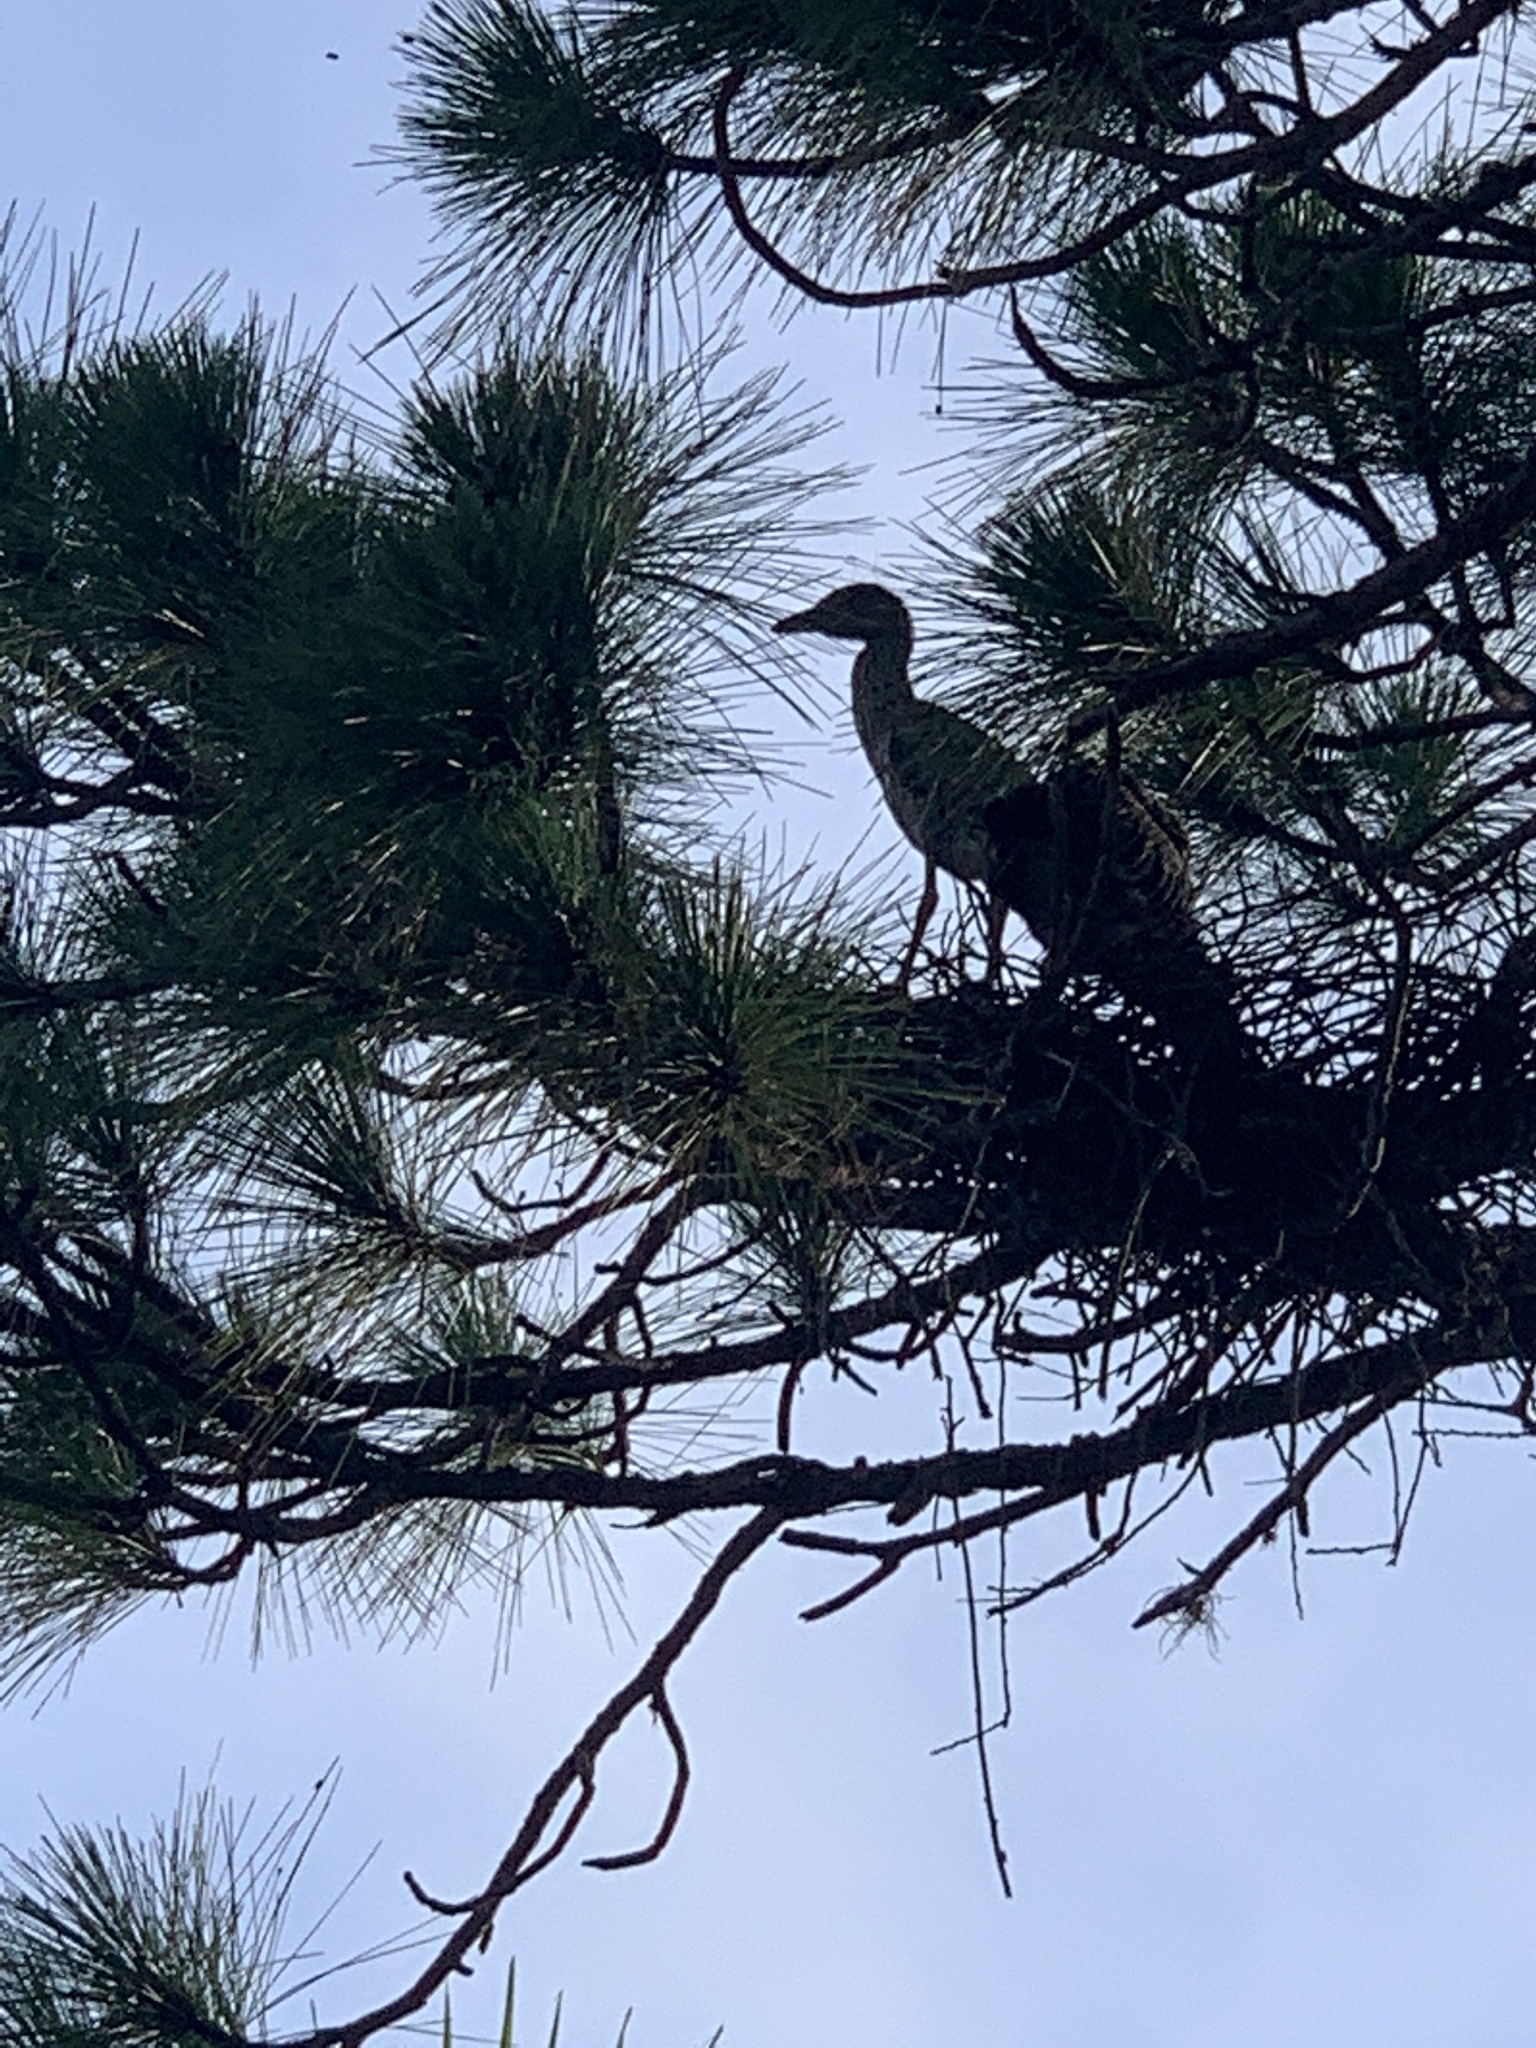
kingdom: Animalia
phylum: Chordata
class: Aves
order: Pelecaniformes
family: Ardeidae
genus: Nyctanassa
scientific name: Nyctanassa violacea
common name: Yellow-crowned night heron
